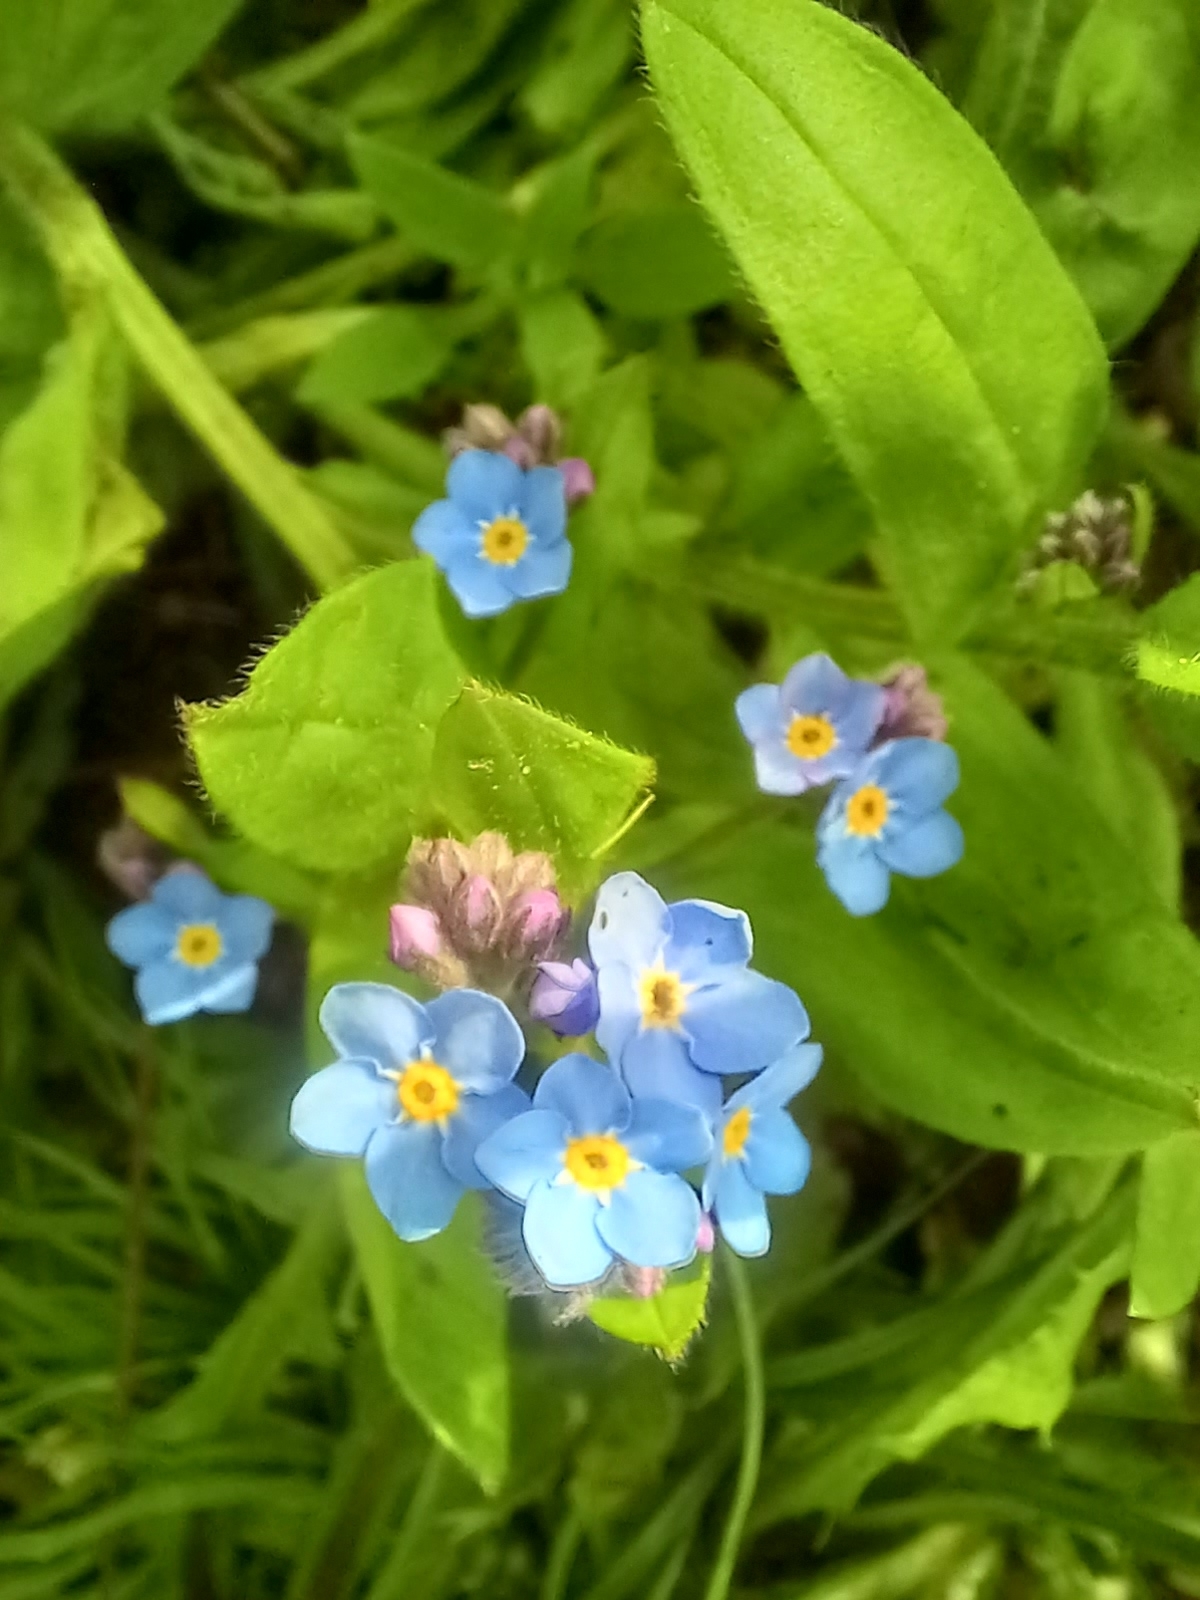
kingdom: Plantae
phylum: Tracheophyta
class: Magnoliopsida
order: Boraginales
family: Boraginaceae
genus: Myosotis
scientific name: Myosotis sylvatica
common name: Wood forget-me-not
